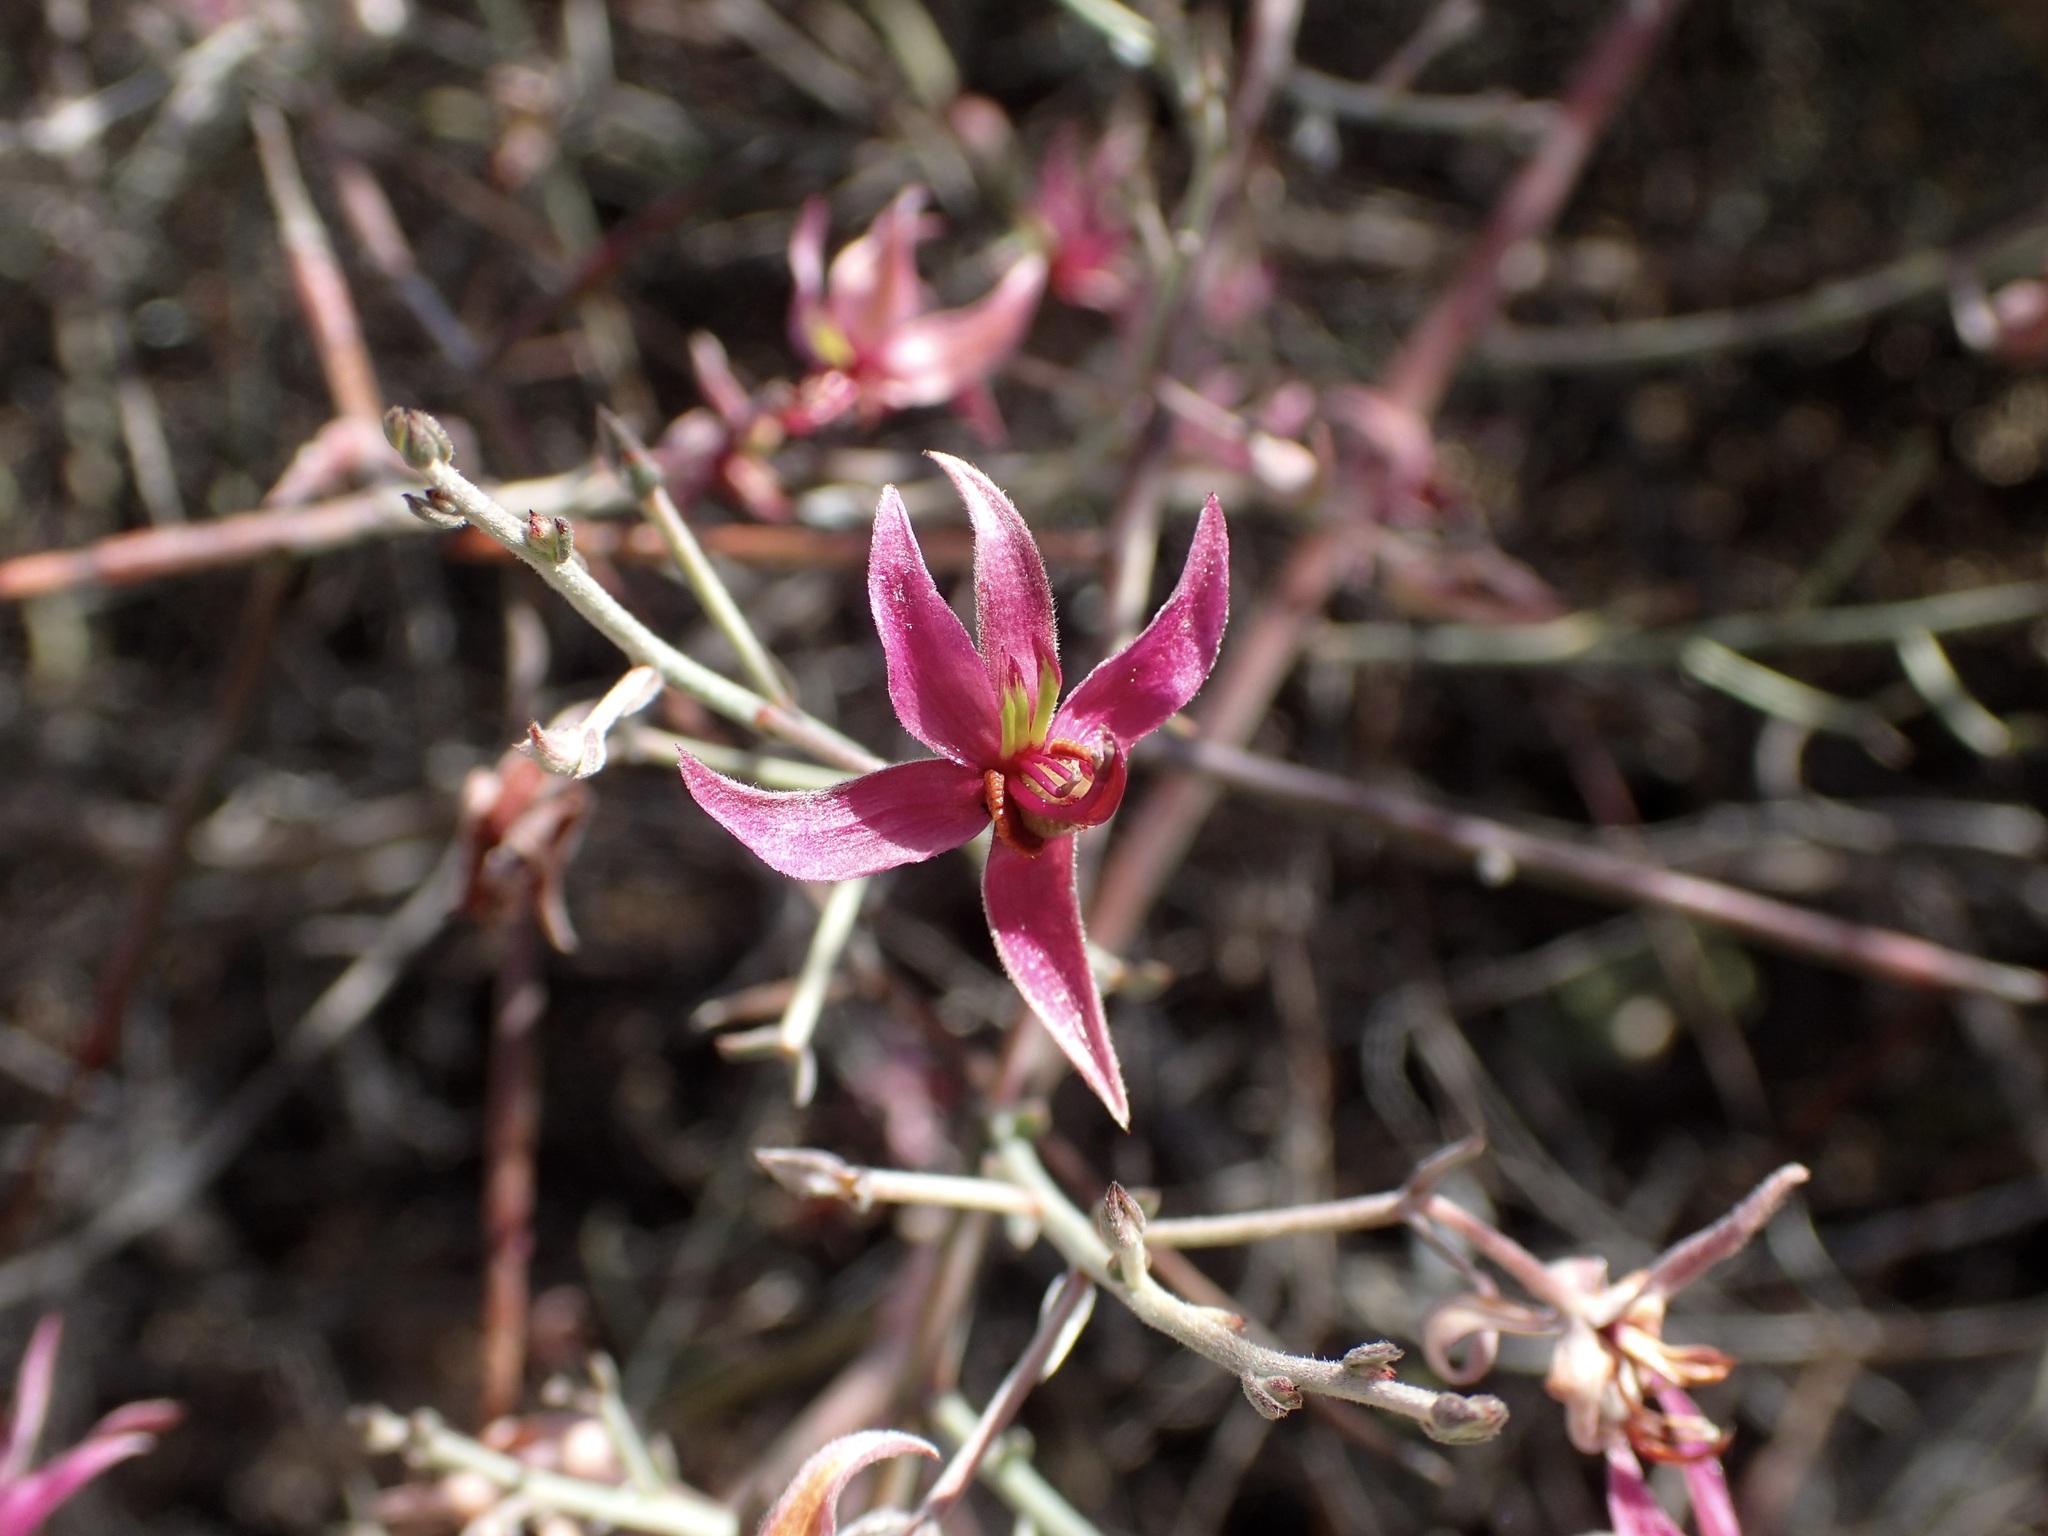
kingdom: Plantae
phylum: Tracheophyta
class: Magnoliopsida
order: Zygophyllales
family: Krameriaceae
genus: Krameria
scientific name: Krameria bicolor
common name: White ratany
